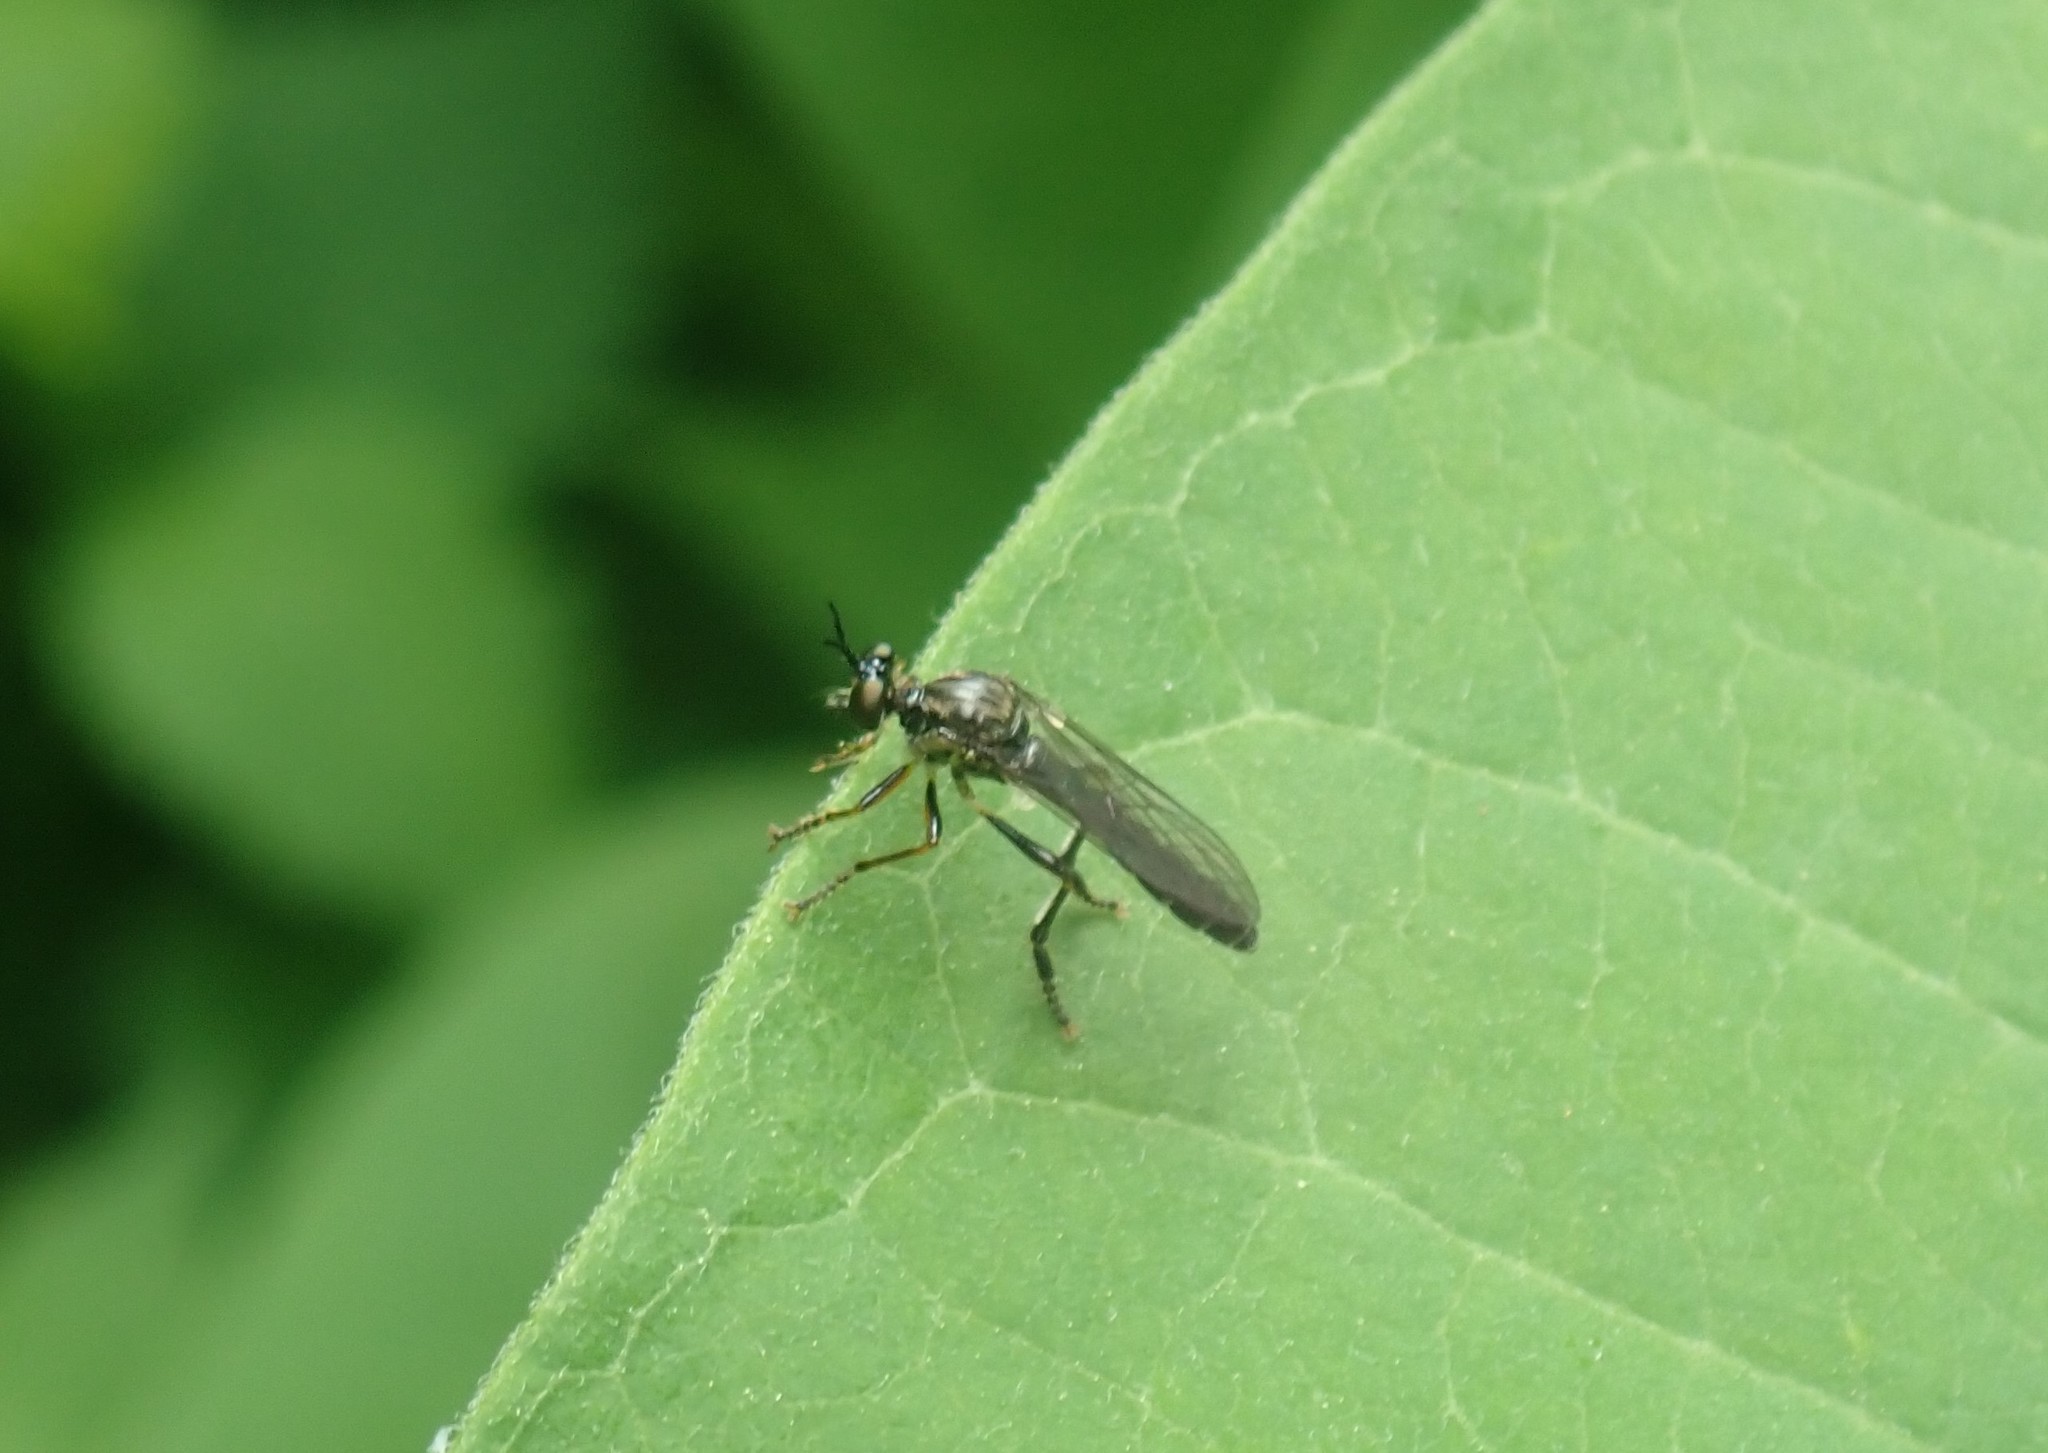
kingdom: Animalia
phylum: Arthropoda
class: Insecta
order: Diptera
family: Asilidae
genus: Dioctria
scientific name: Dioctria hyalipennis
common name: Stripe-legged robberfly
